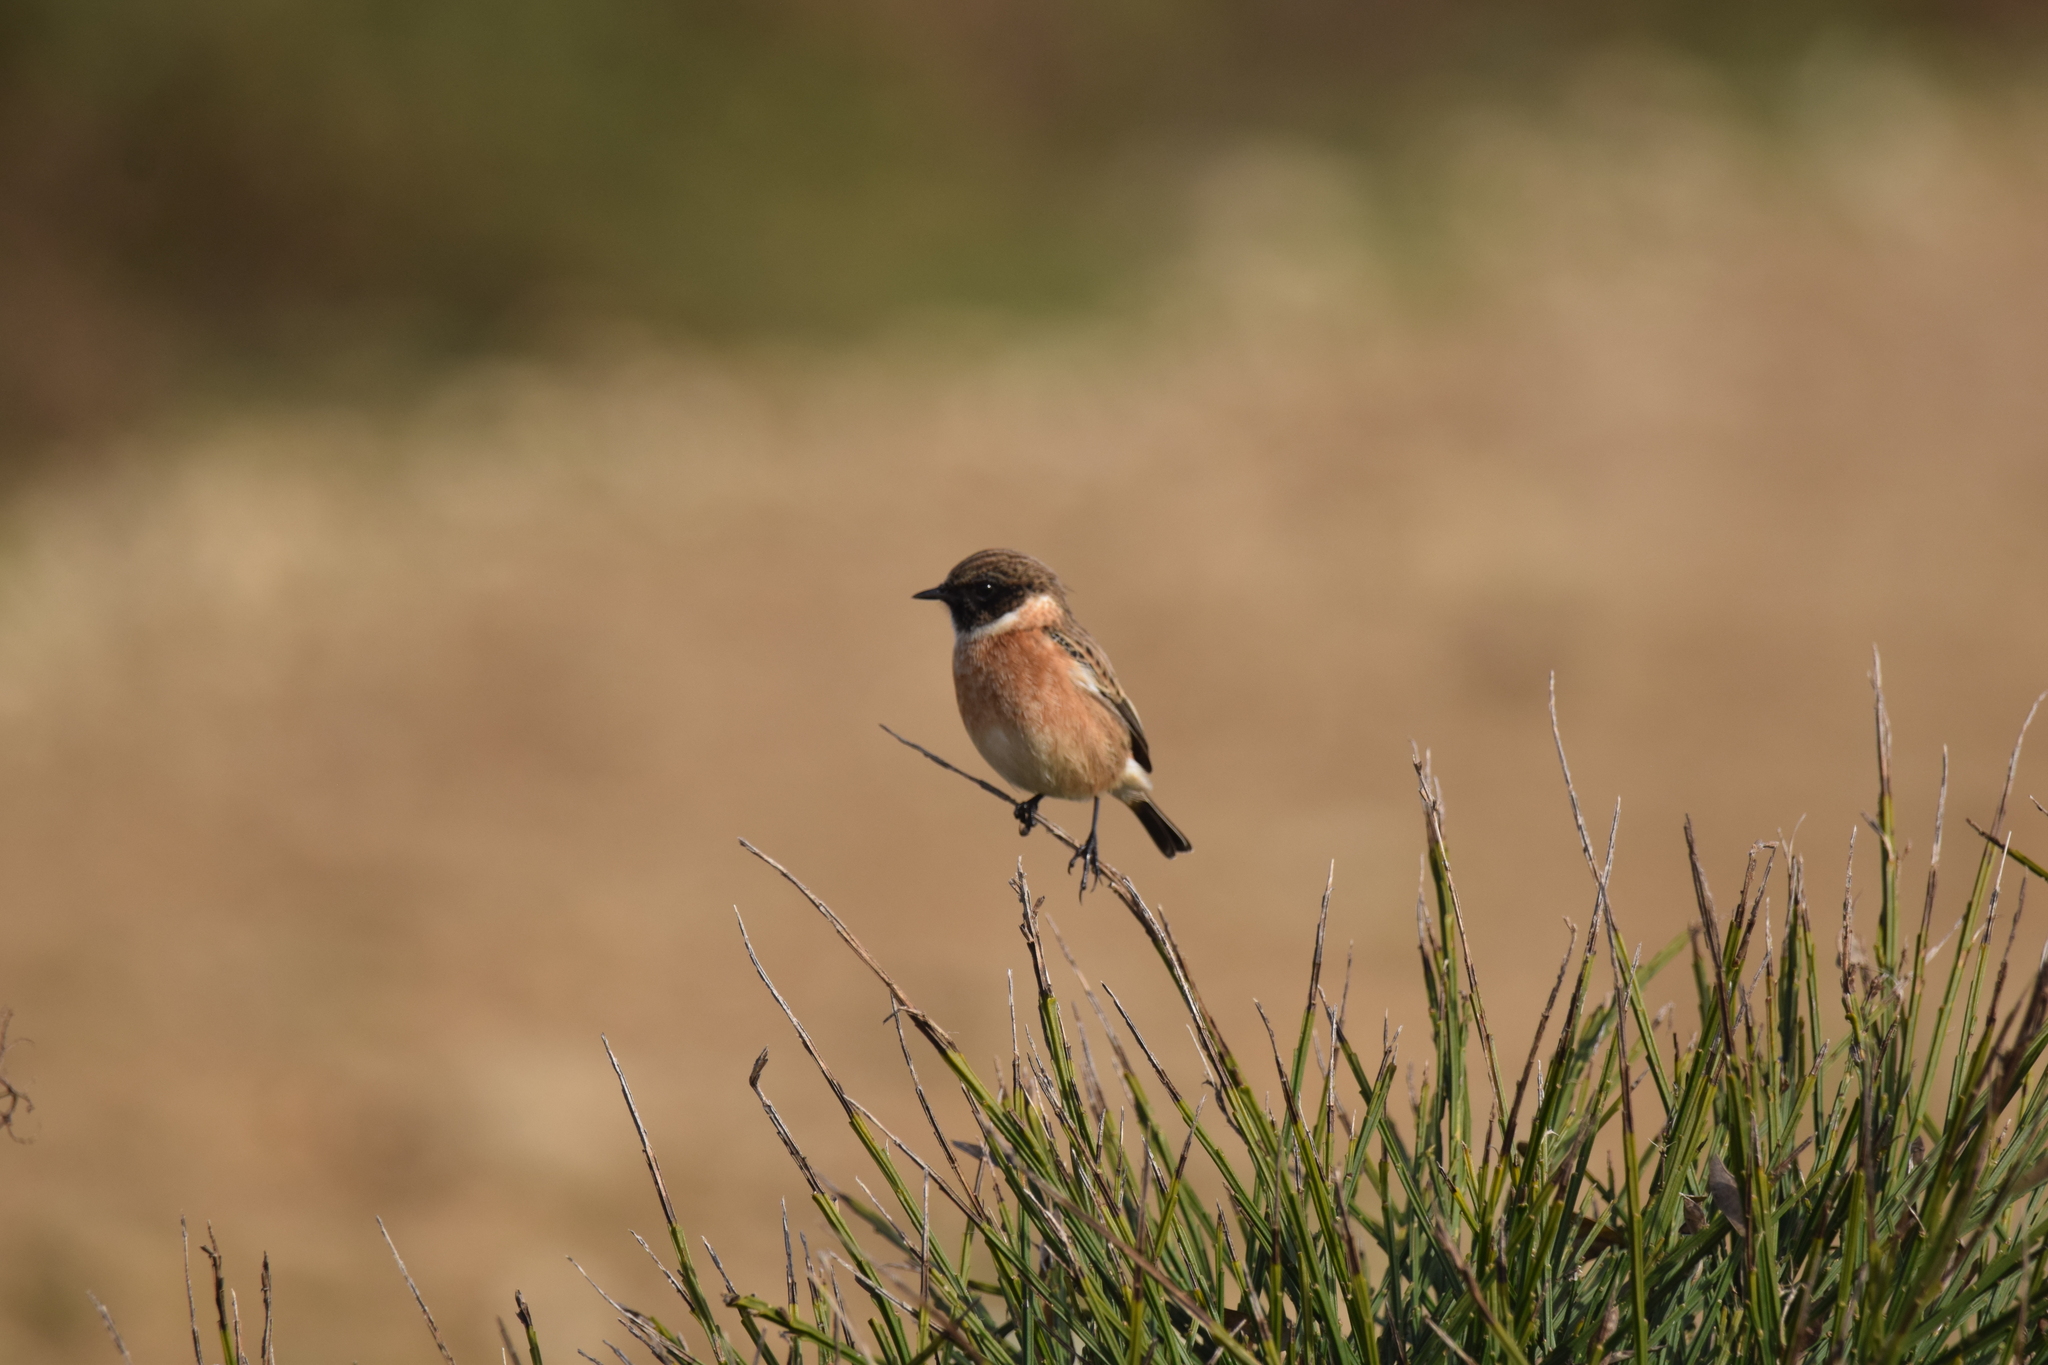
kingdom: Animalia
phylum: Chordata
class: Aves
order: Passeriformes
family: Muscicapidae
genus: Saxicola
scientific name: Saxicola rubicola
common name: European stonechat
